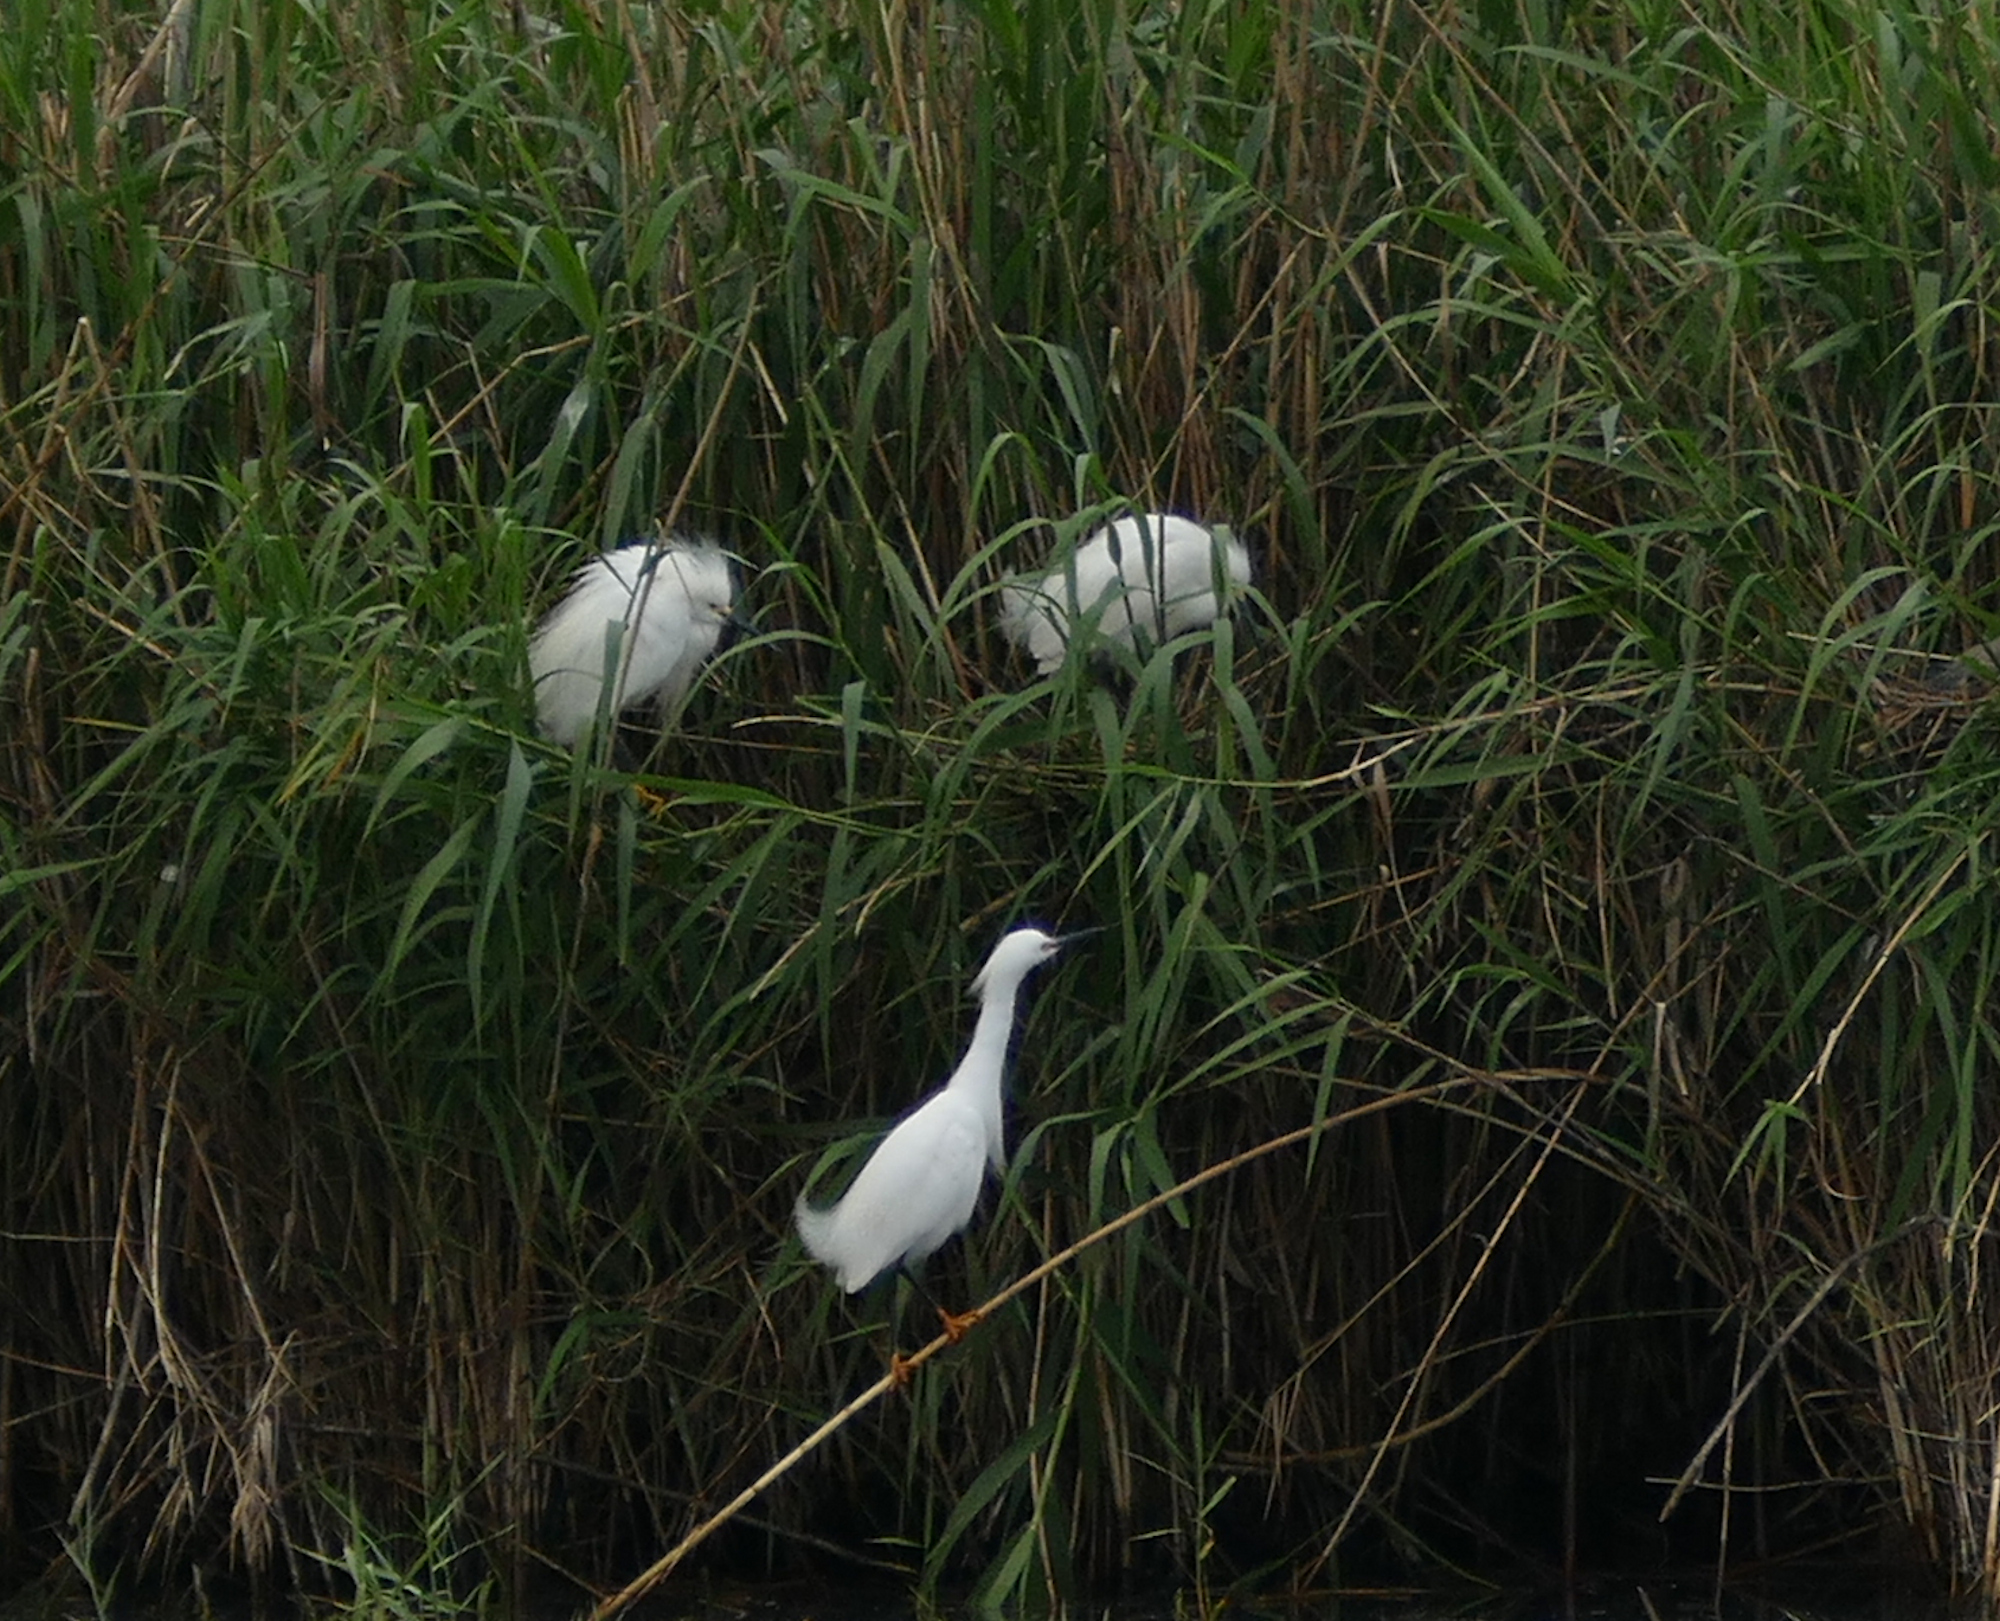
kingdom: Animalia
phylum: Chordata
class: Aves
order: Pelecaniformes
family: Ardeidae
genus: Egretta
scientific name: Egretta thula
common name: Snowy egret
